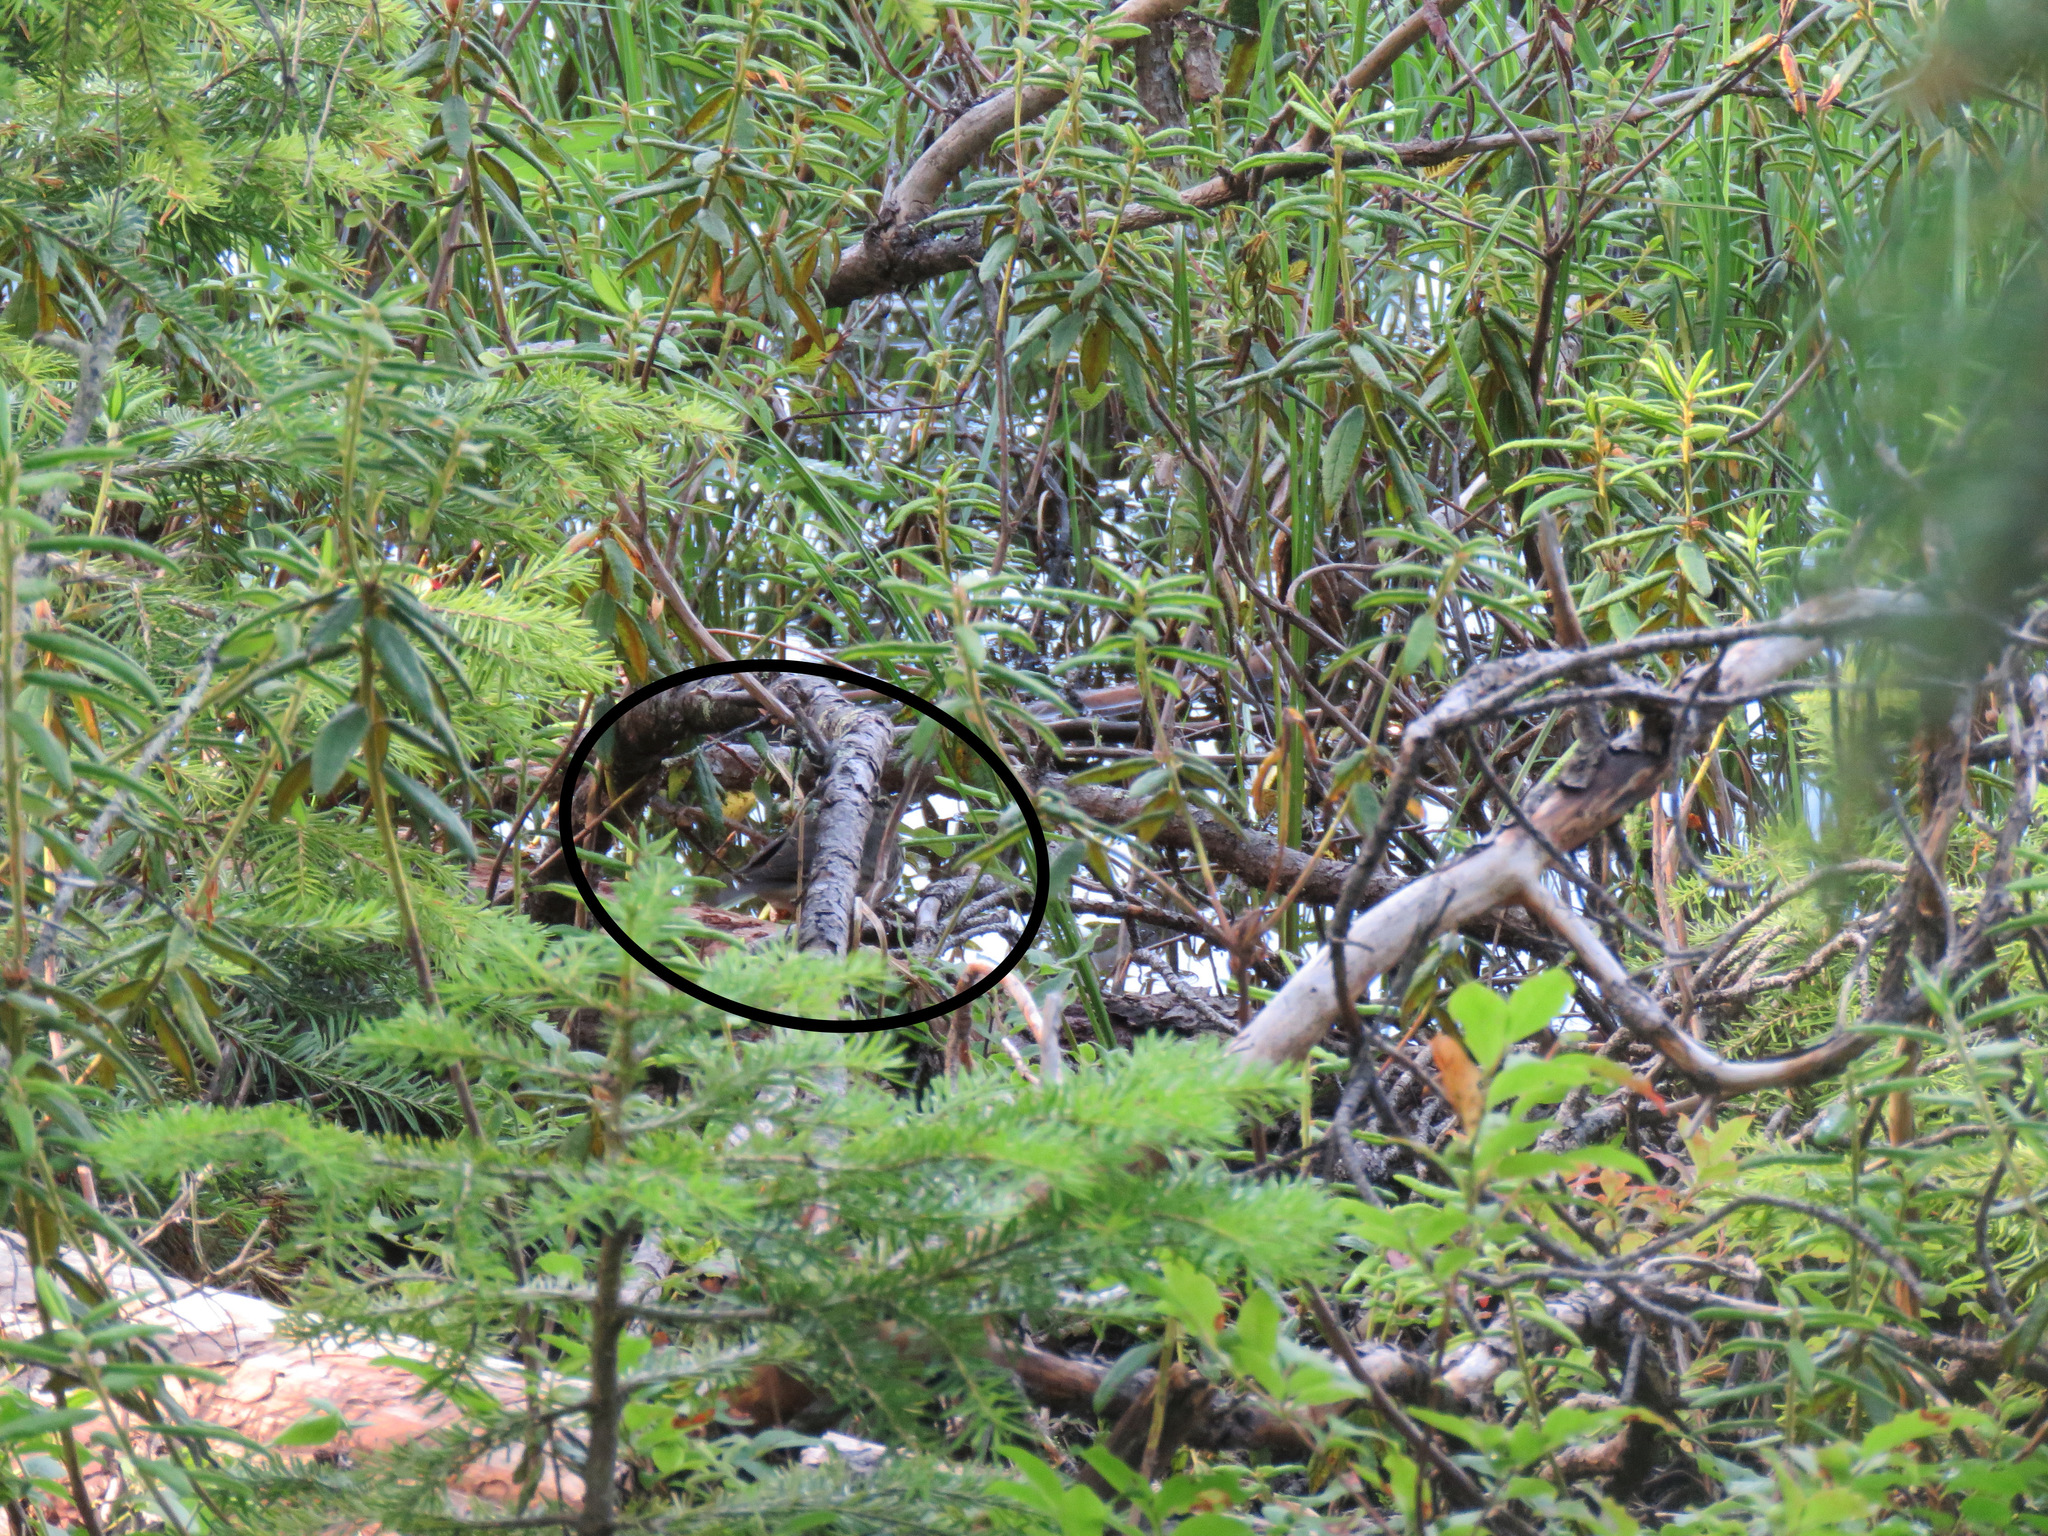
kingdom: Animalia
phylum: Chordata
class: Aves
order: Passeriformes
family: Parulidae
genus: Parkesia
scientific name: Parkesia noveboracensis
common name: Northern waterthrush
